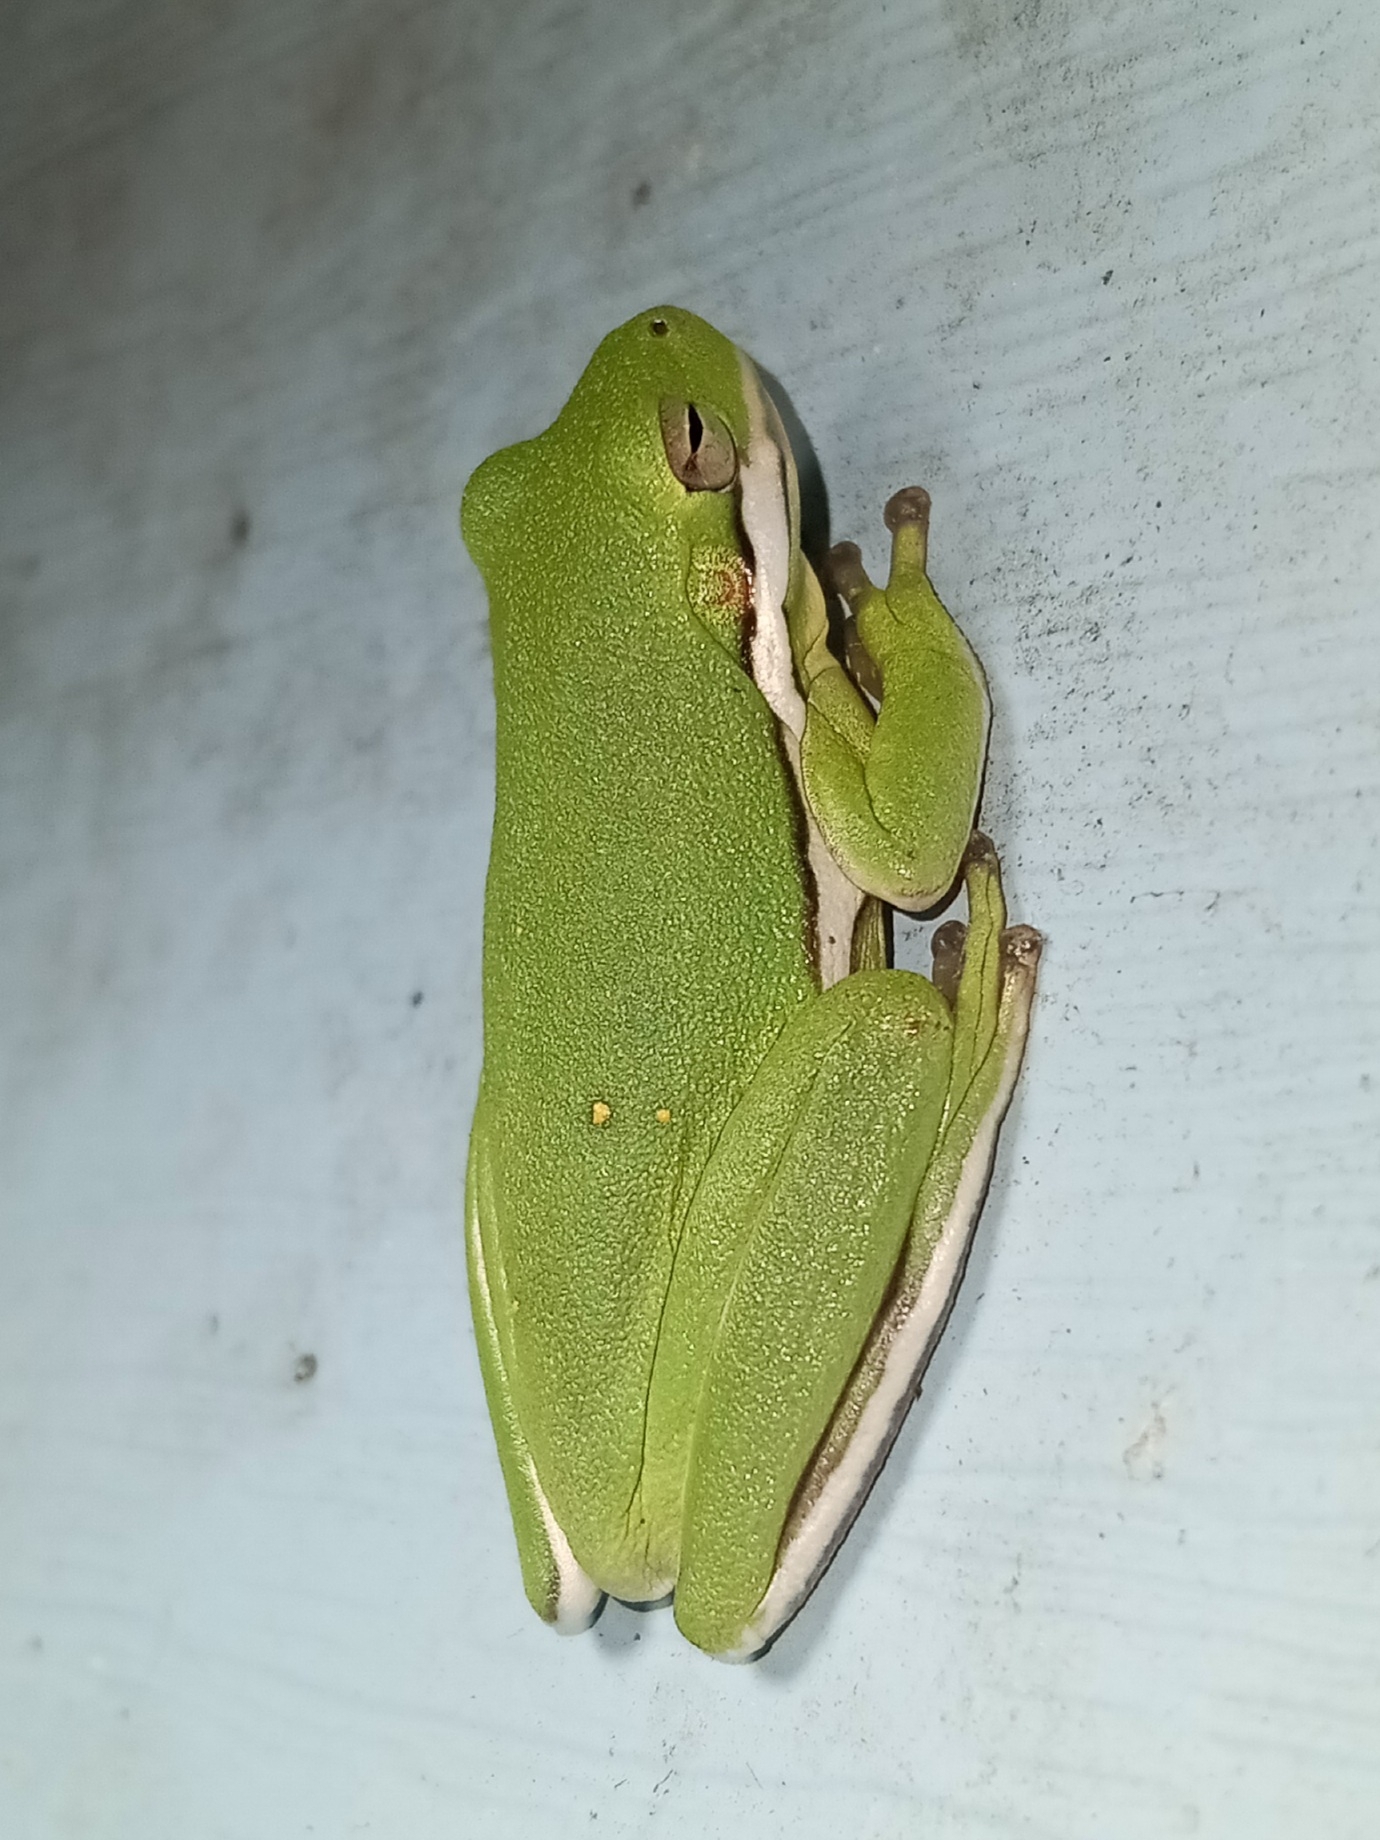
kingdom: Animalia
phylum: Chordata
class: Amphibia
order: Anura
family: Hylidae
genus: Dryophytes
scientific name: Dryophytes cinereus
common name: Green treefrog
